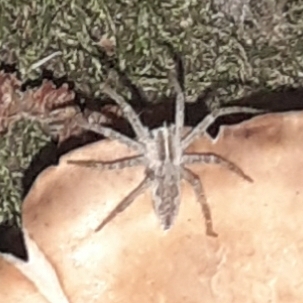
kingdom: Animalia
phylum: Arthropoda
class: Arachnida
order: Araneae
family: Pisauridae
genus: Pisaura
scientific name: Pisaura mirabilis
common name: Tent spider
